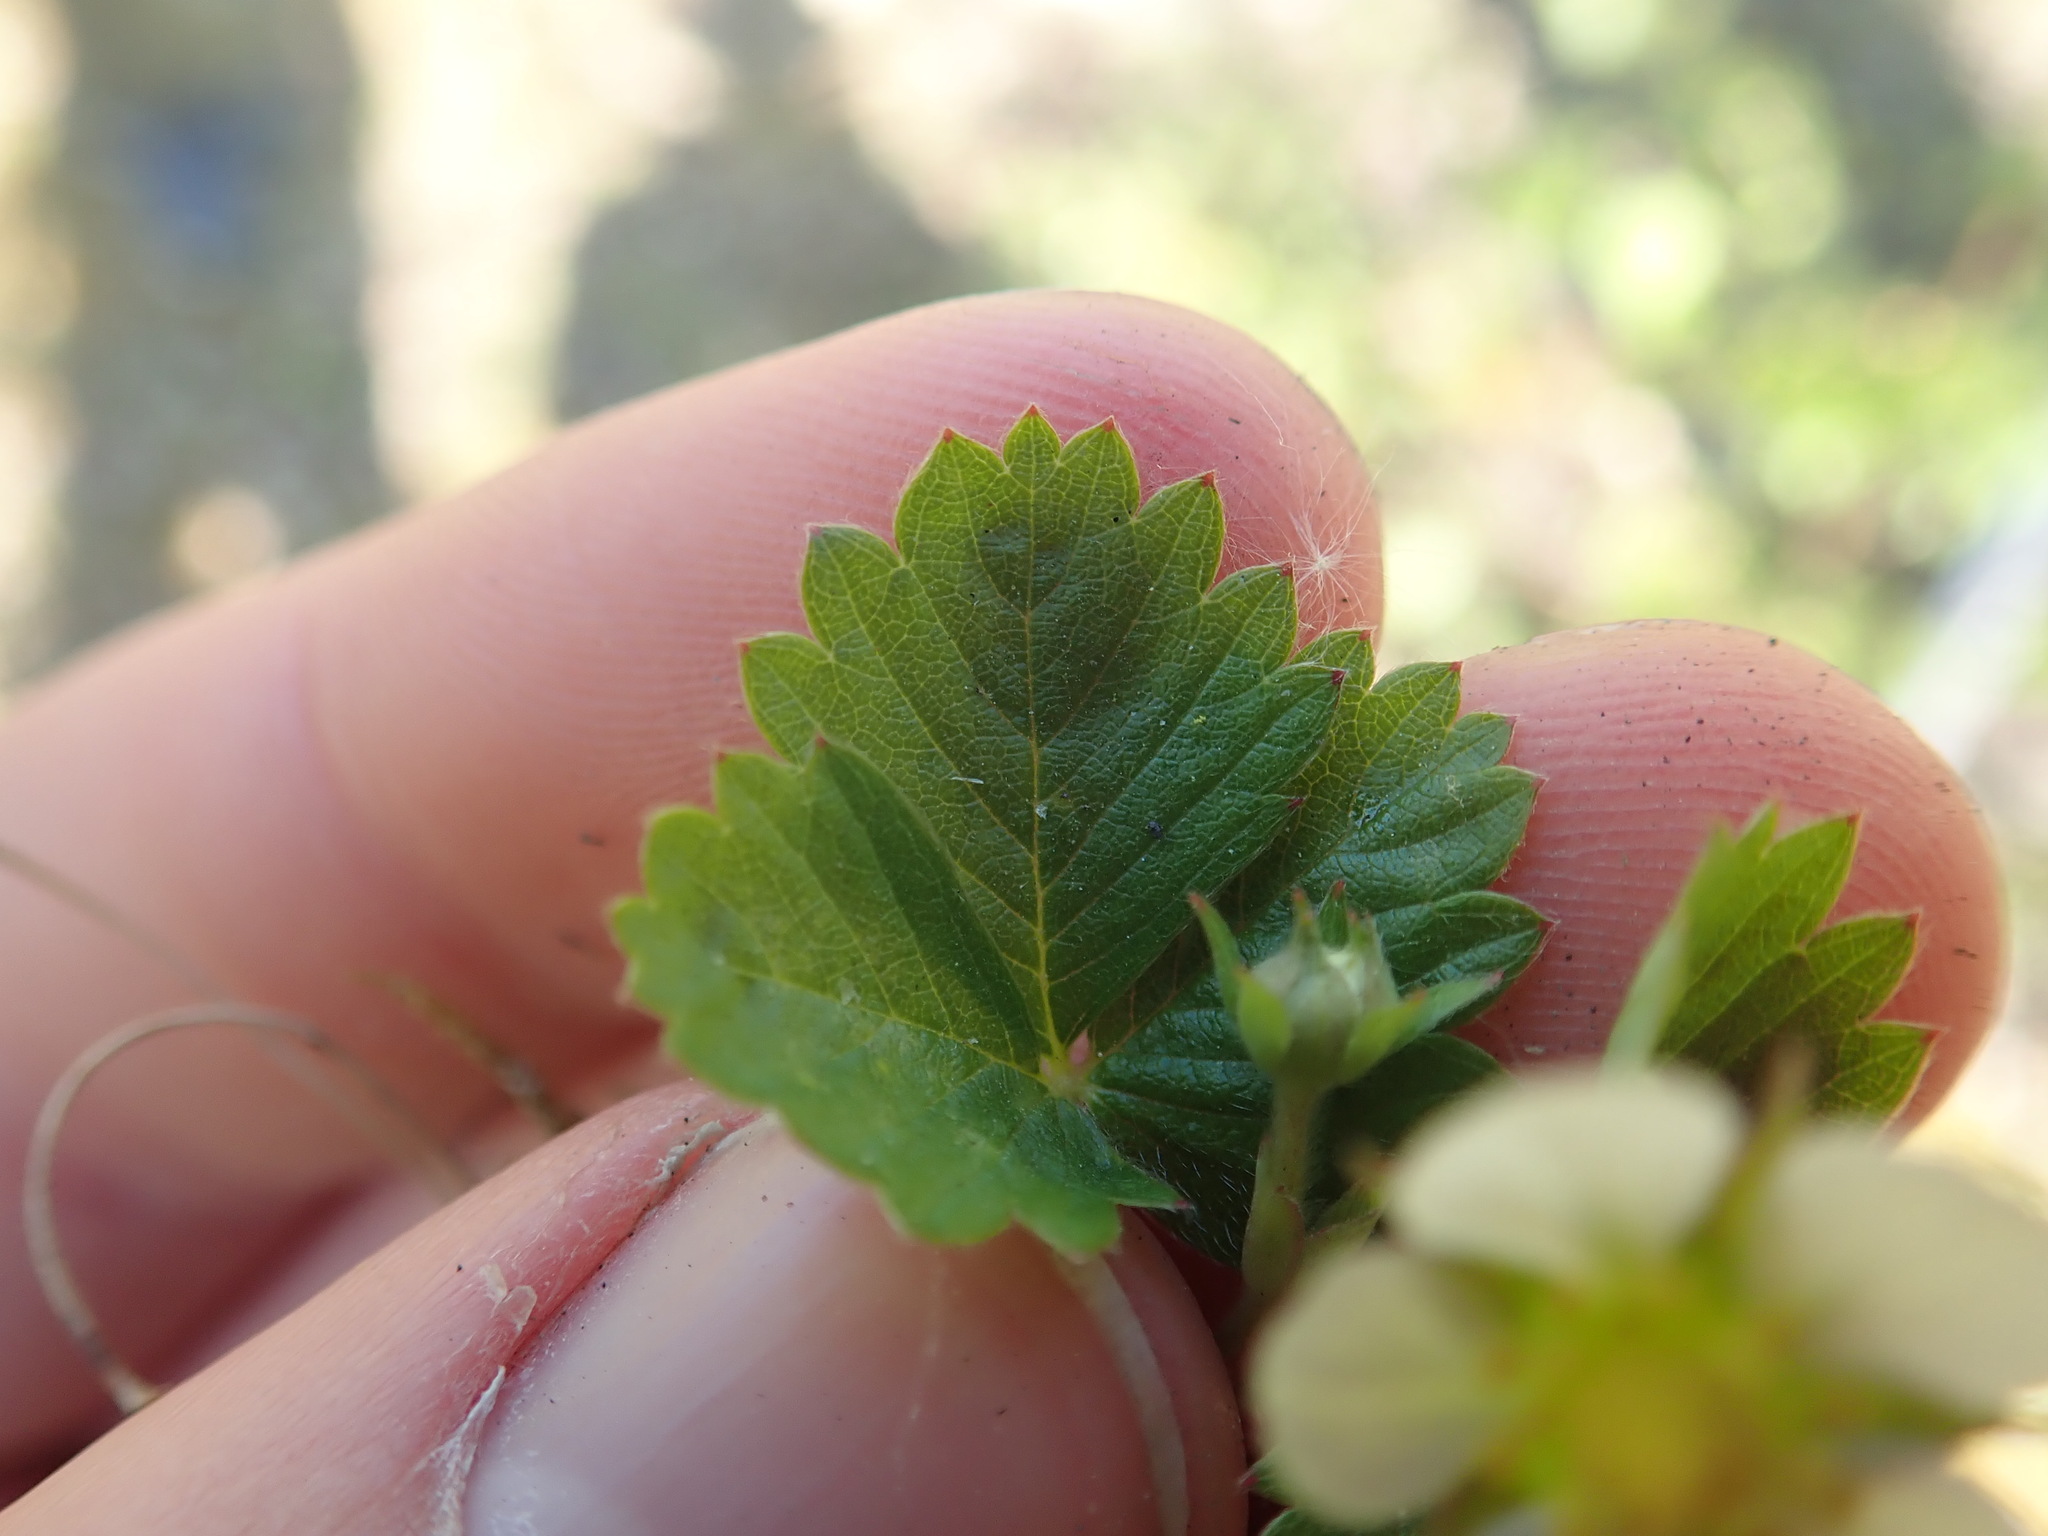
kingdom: Plantae
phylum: Tracheophyta
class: Magnoliopsida
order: Rosales
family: Rosaceae
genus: Potentilla
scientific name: Potentilla sterilis
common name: Barren strawberry
